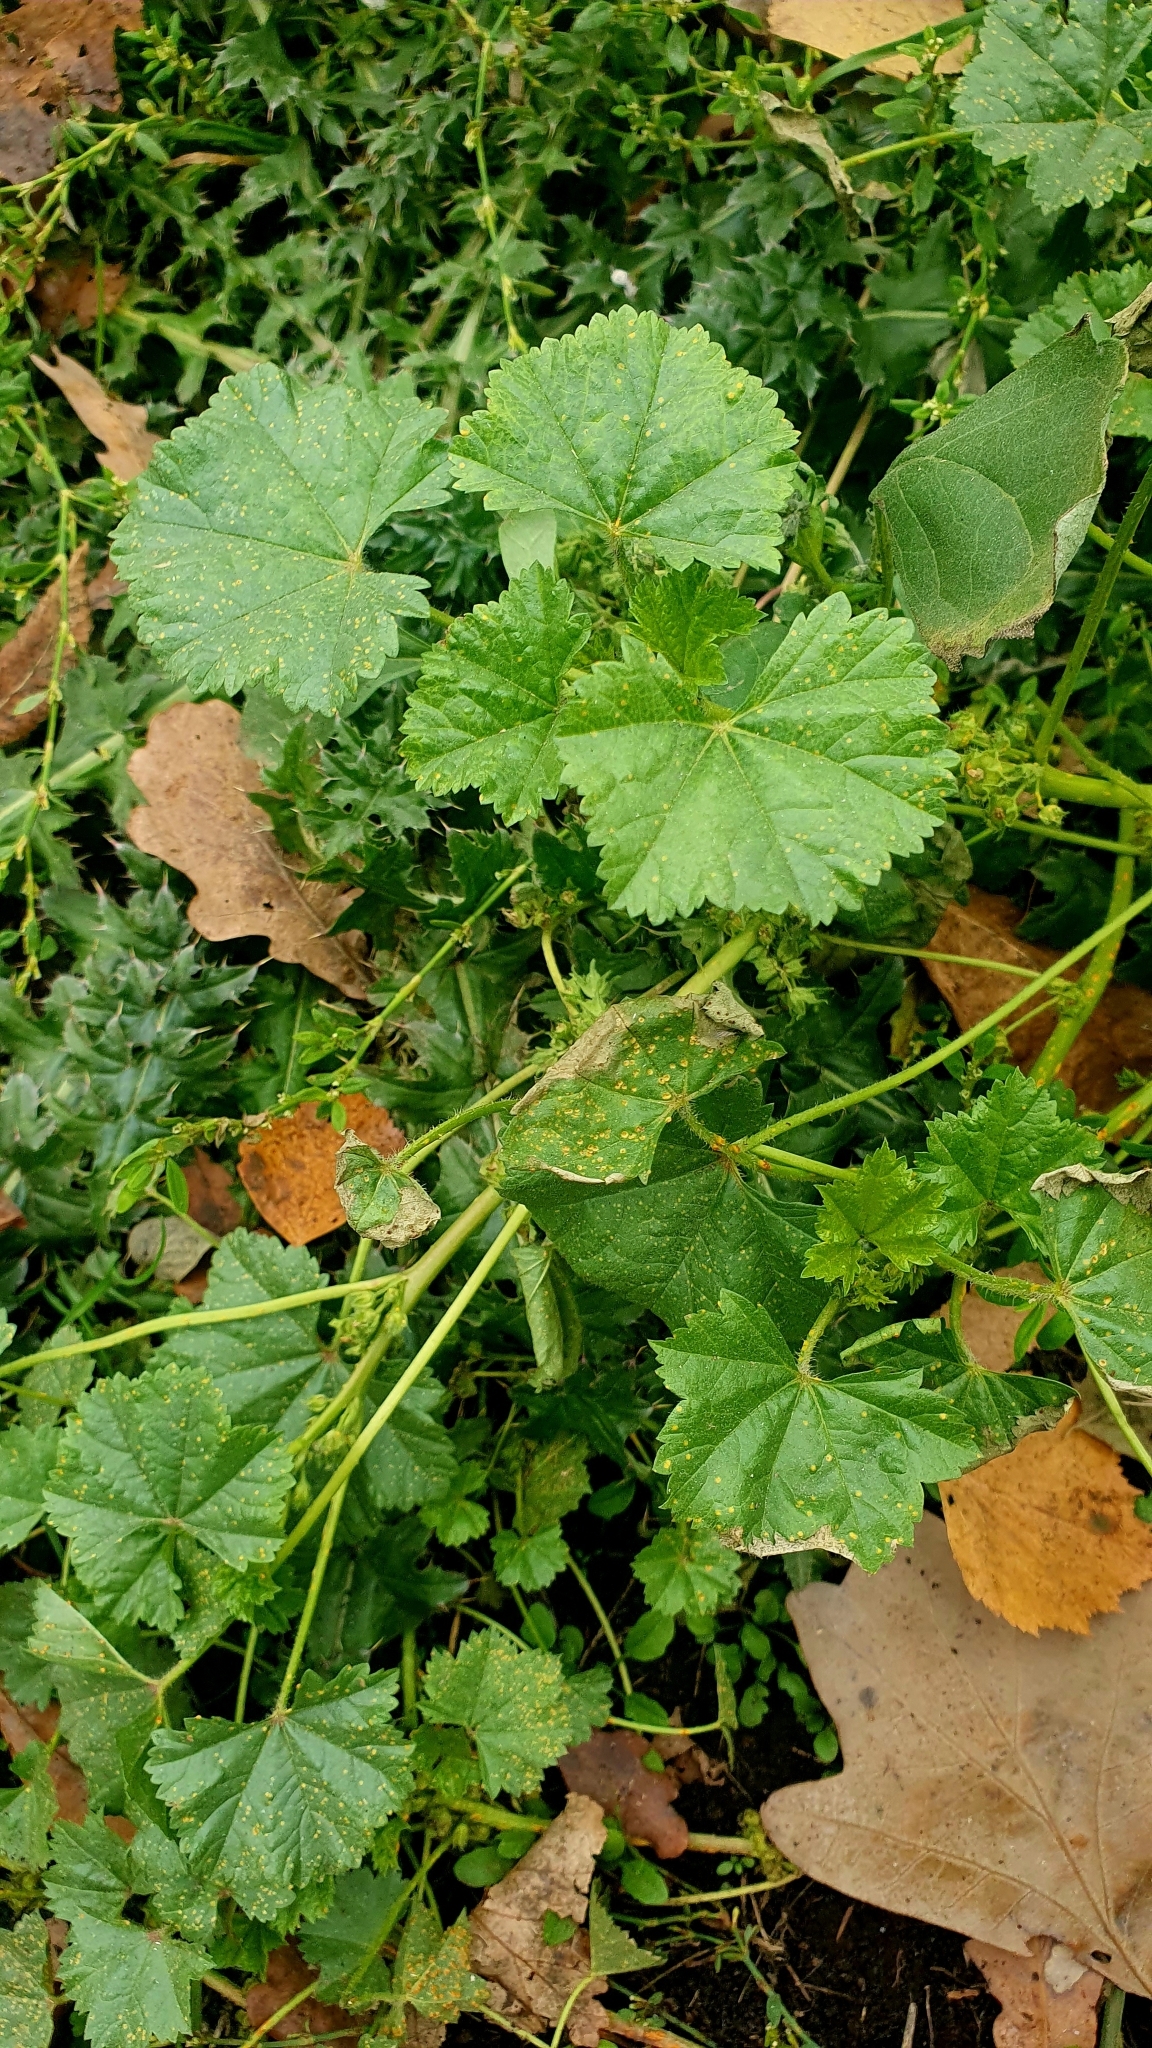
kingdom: Plantae
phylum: Tracheophyta
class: Magnoliopsida
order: Malvales
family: Malvaceae
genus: Malva
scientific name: Malva pusilla
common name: Small mallow
